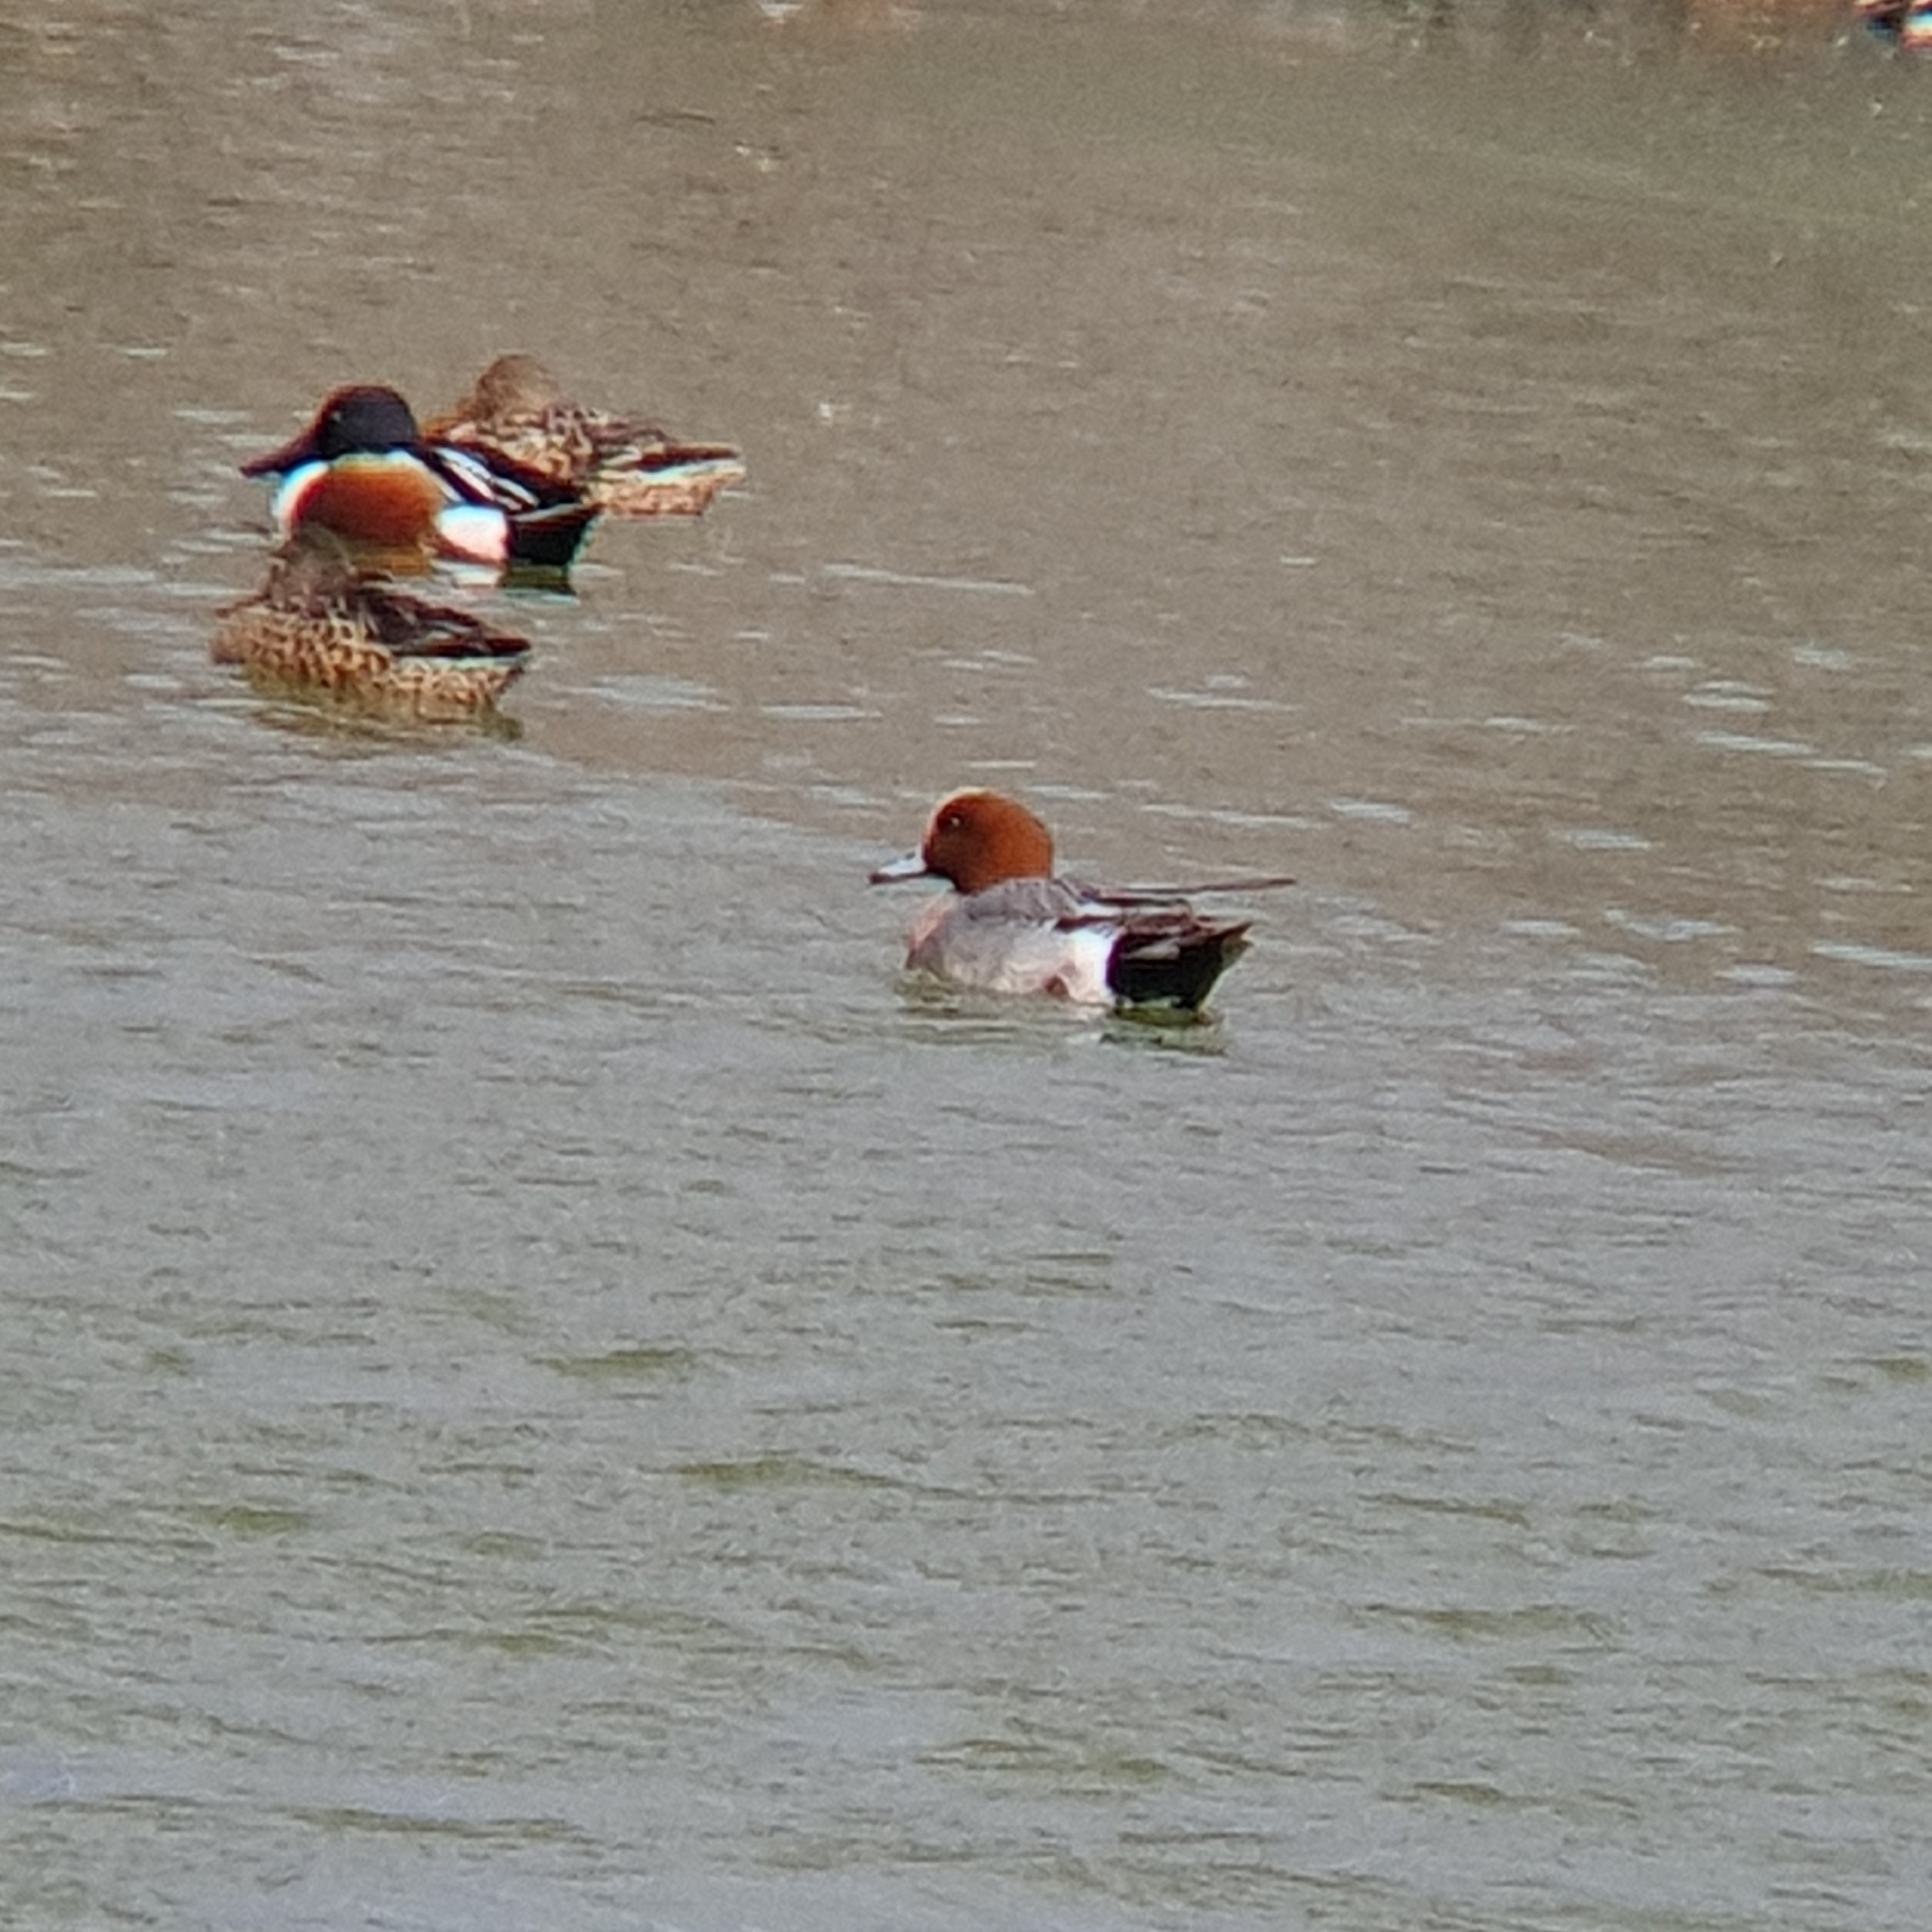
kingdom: Animalia
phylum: Chordata
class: Aves
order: Anseriformes
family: Anatidae
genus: Mareca
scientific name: Mareca penelope
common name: Eurasian wigeon
